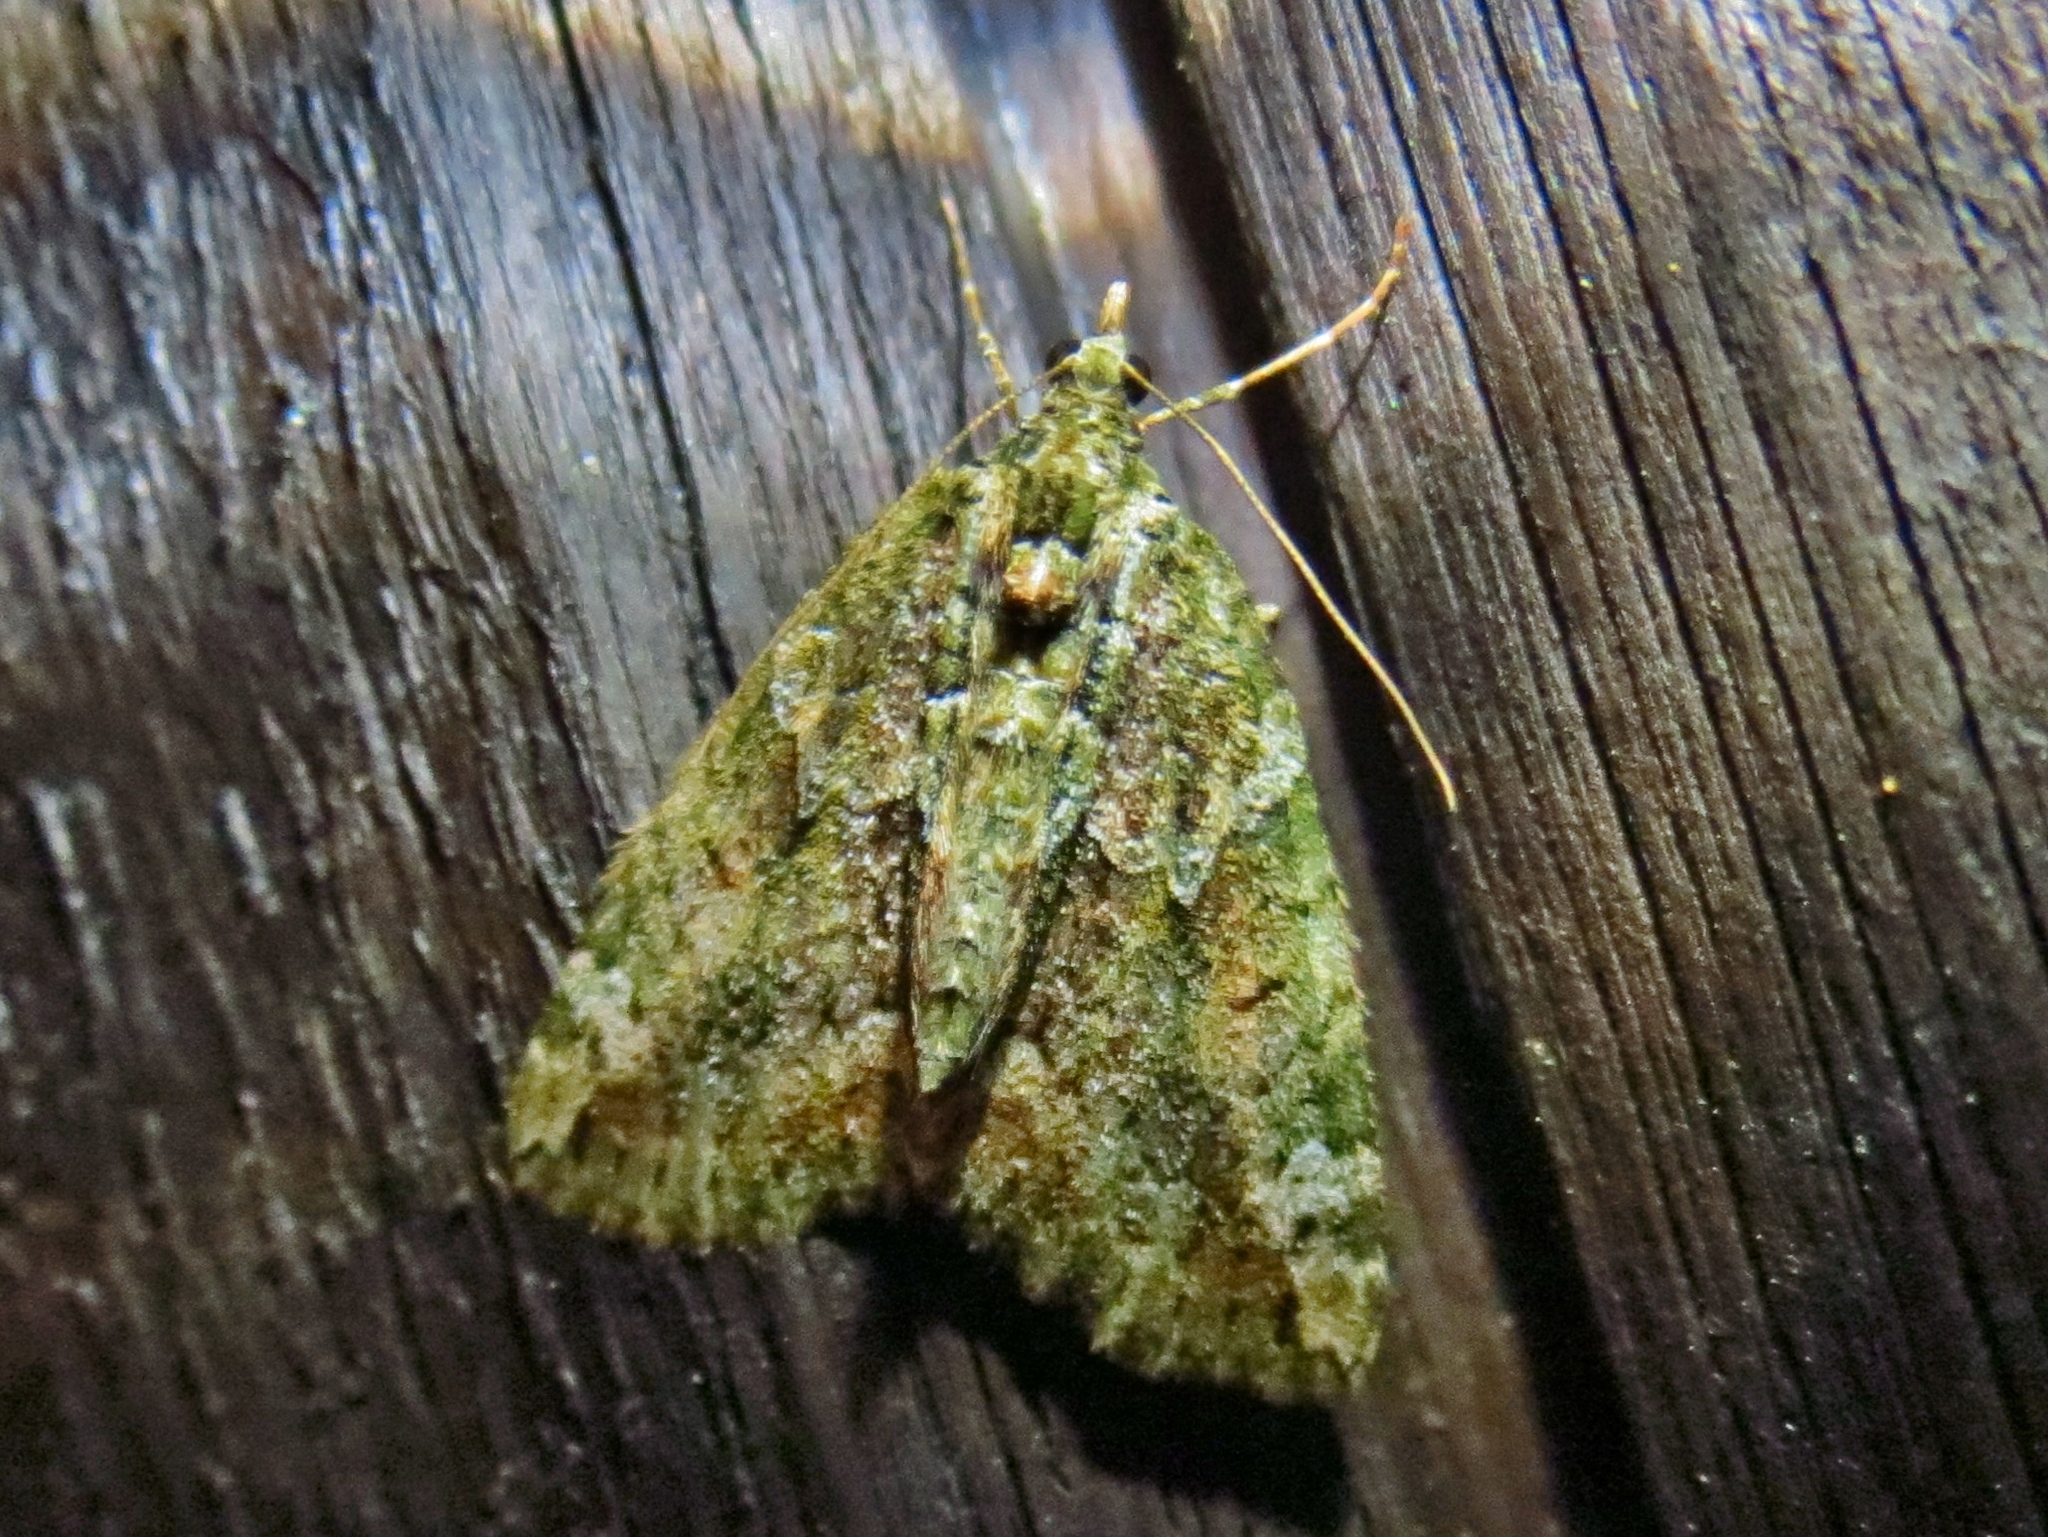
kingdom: Animalia
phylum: Arthropoda
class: Insecta
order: Lepidoptera
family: Geometridae
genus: Chloroclysta
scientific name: Chloroclysta siterata
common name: Red-green carpet
